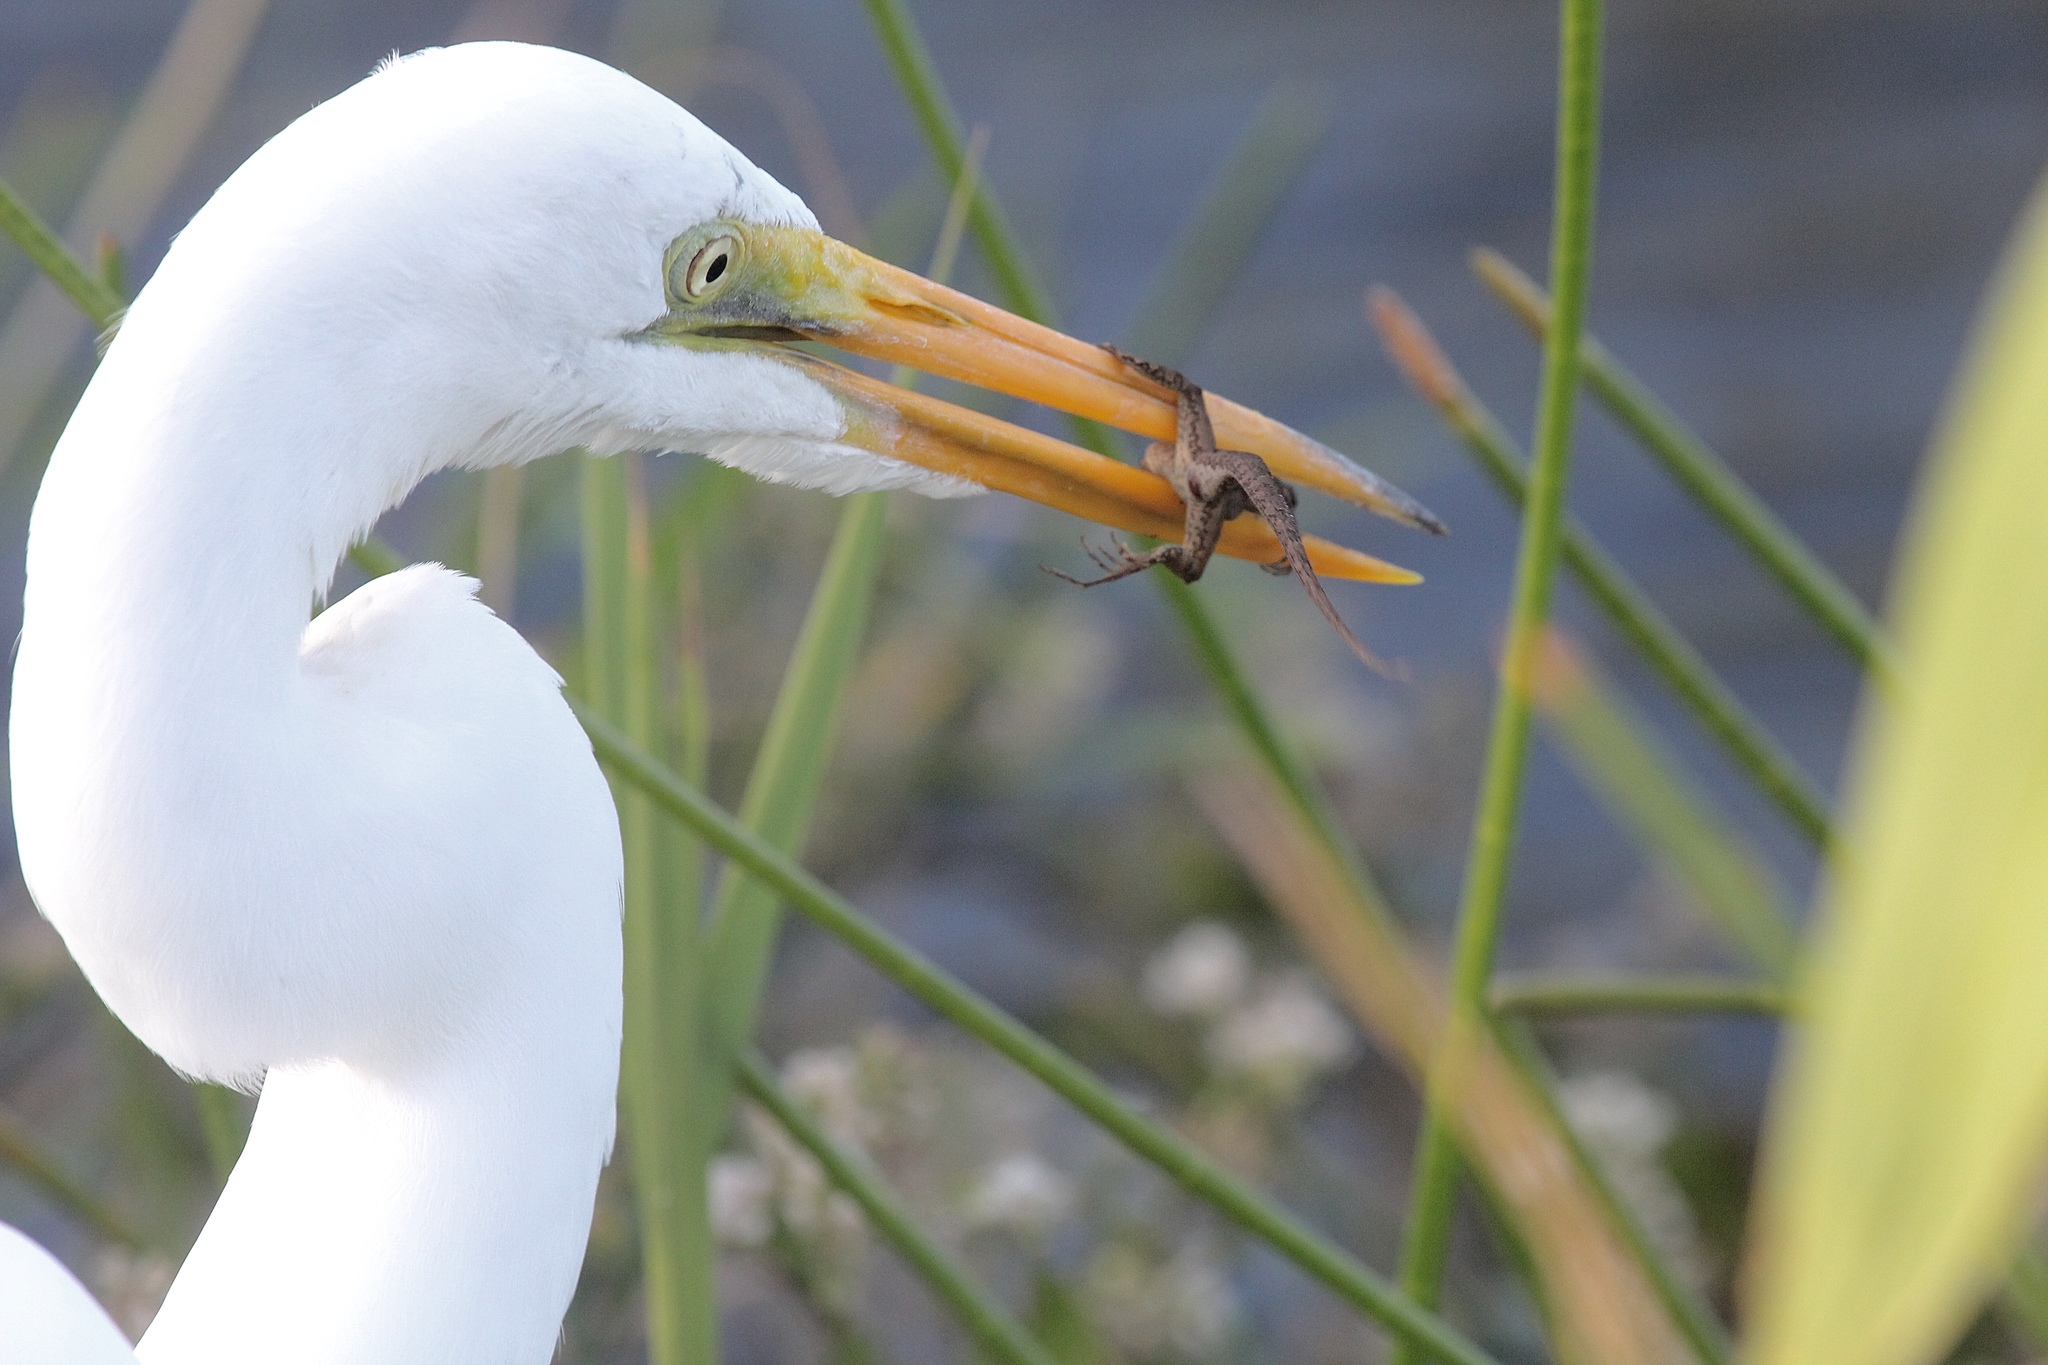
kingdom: Animalia
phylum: Chordata
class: Aves
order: Pelecaniformes
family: Ardeidae
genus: Ardea
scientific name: Ardea alba
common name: Great egret
